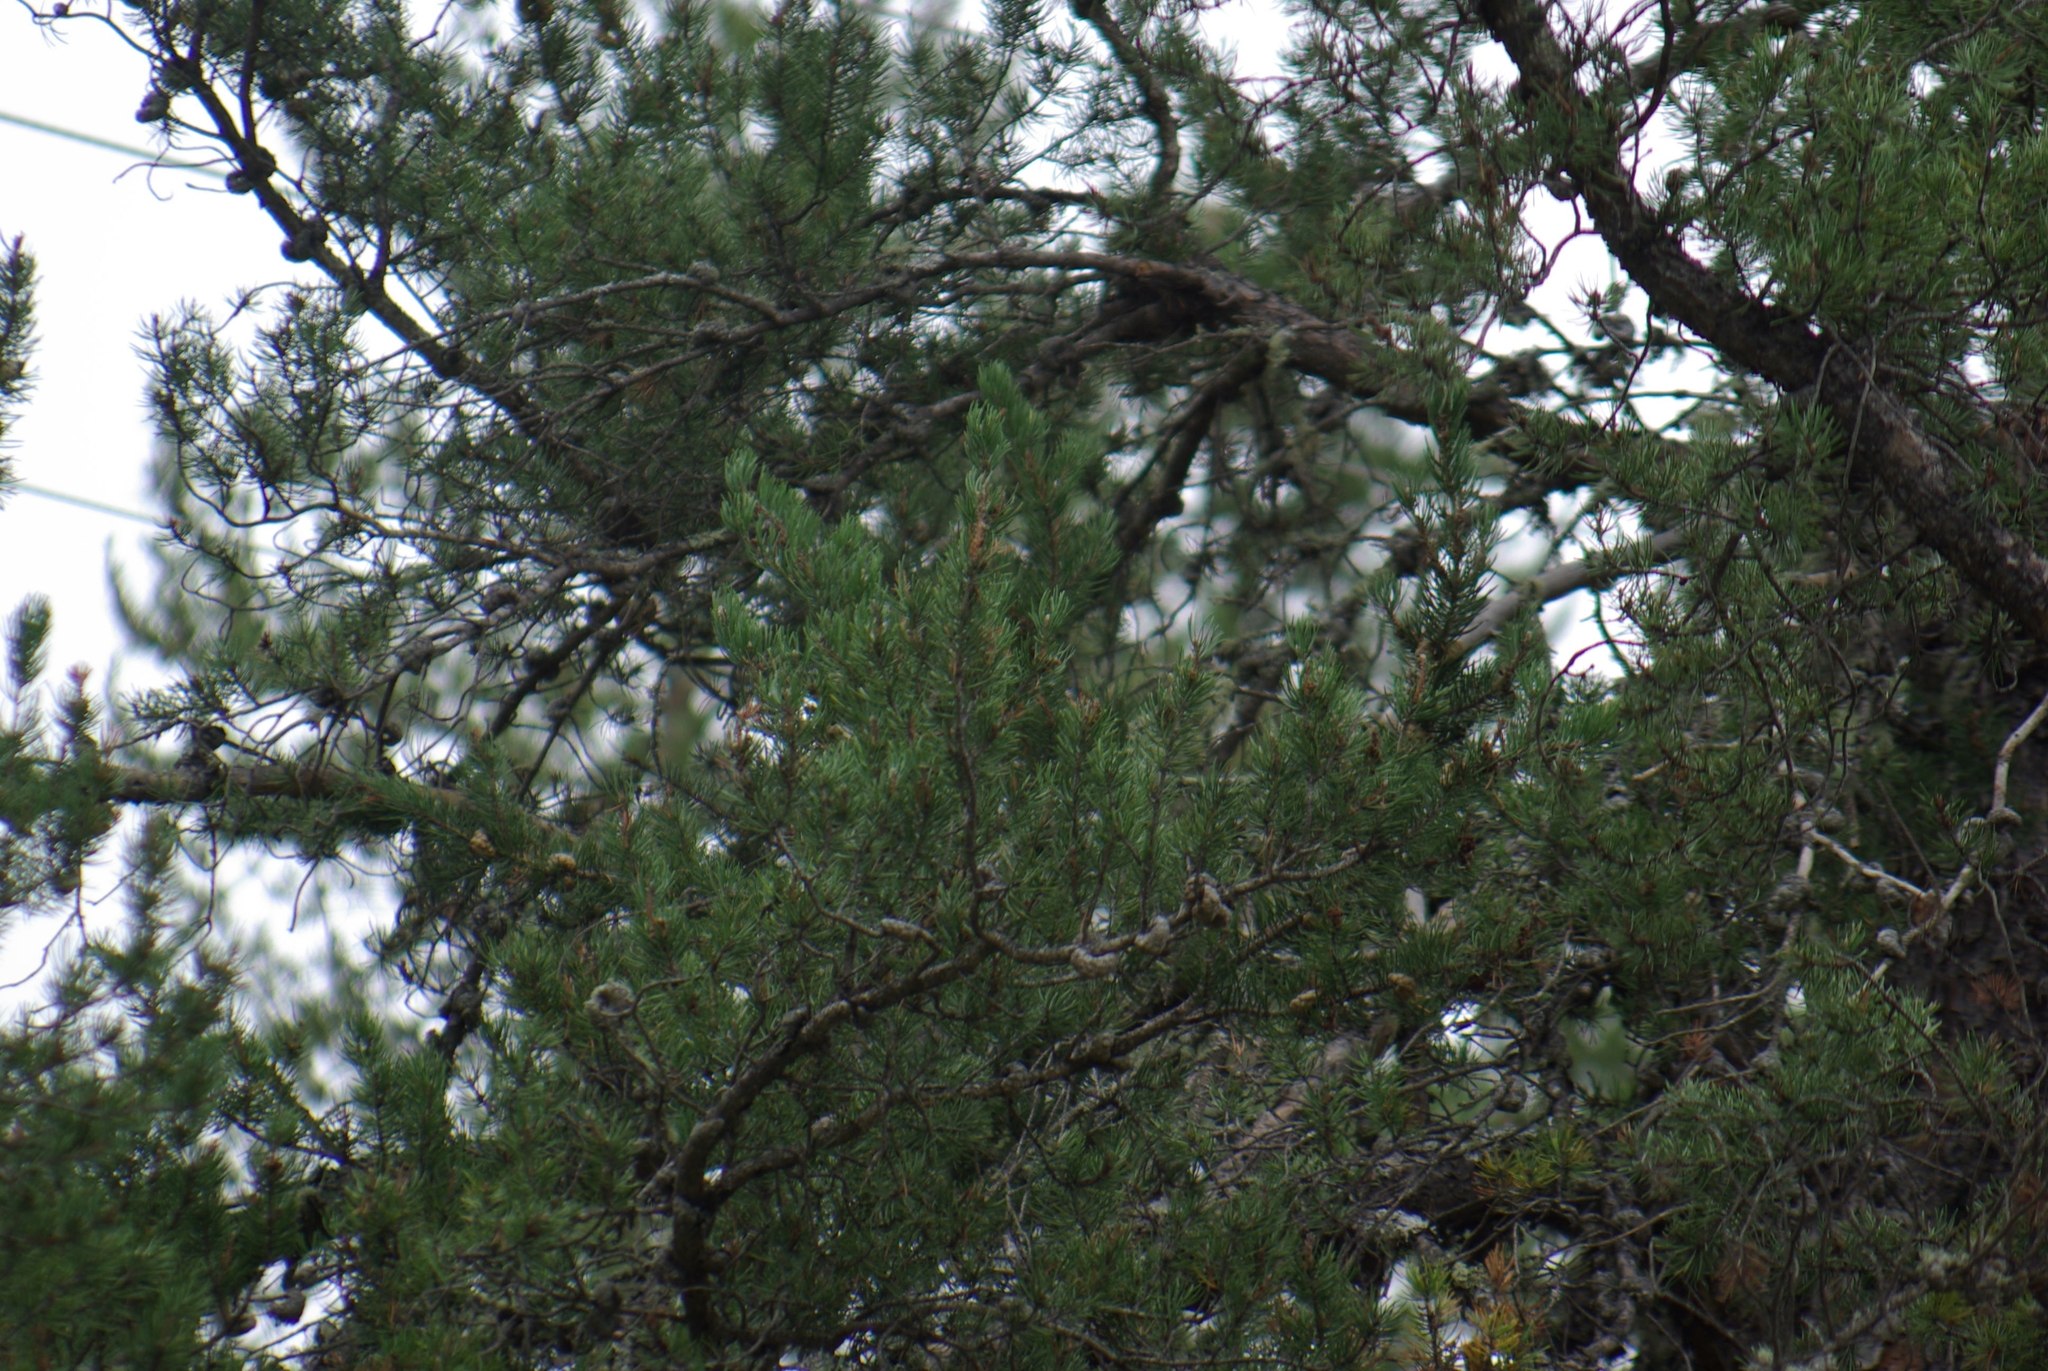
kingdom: Plantae
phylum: Tracheophyta
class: Pinopsida
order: Pinales
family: Pinaceae
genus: Pinus
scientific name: Pinus banksiana
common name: Jack pine
